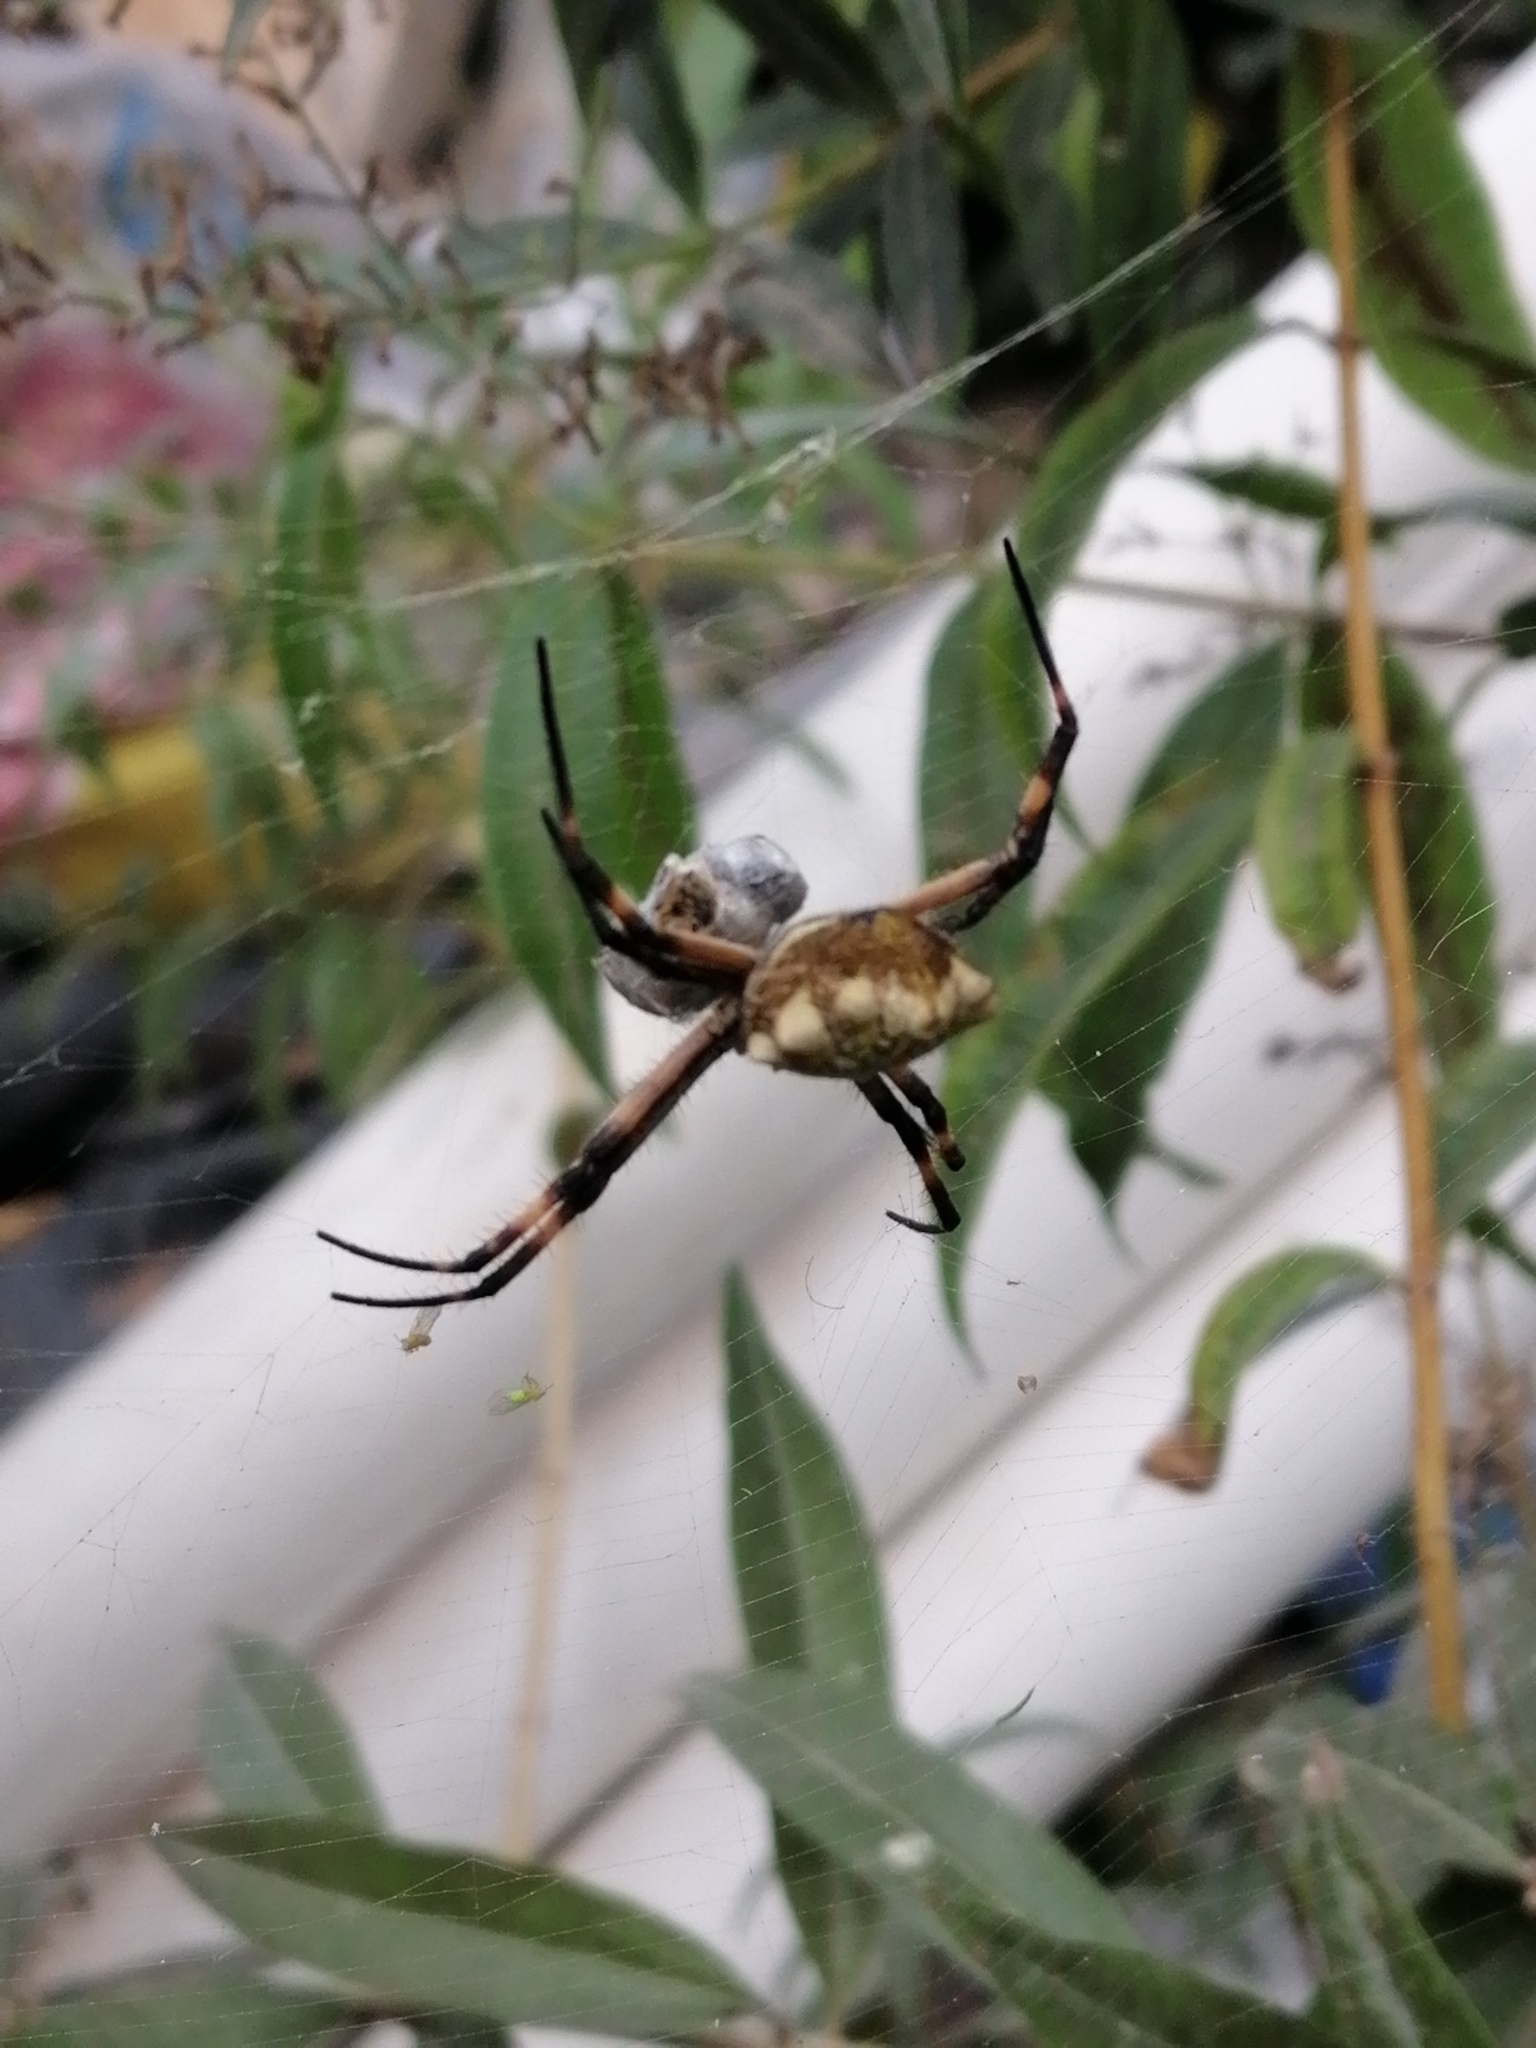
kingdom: Animalia
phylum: Arthropoda
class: Arachnida
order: Araneae
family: Araneidae
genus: Argiope
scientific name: Argiope argentata
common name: Orb weavers
